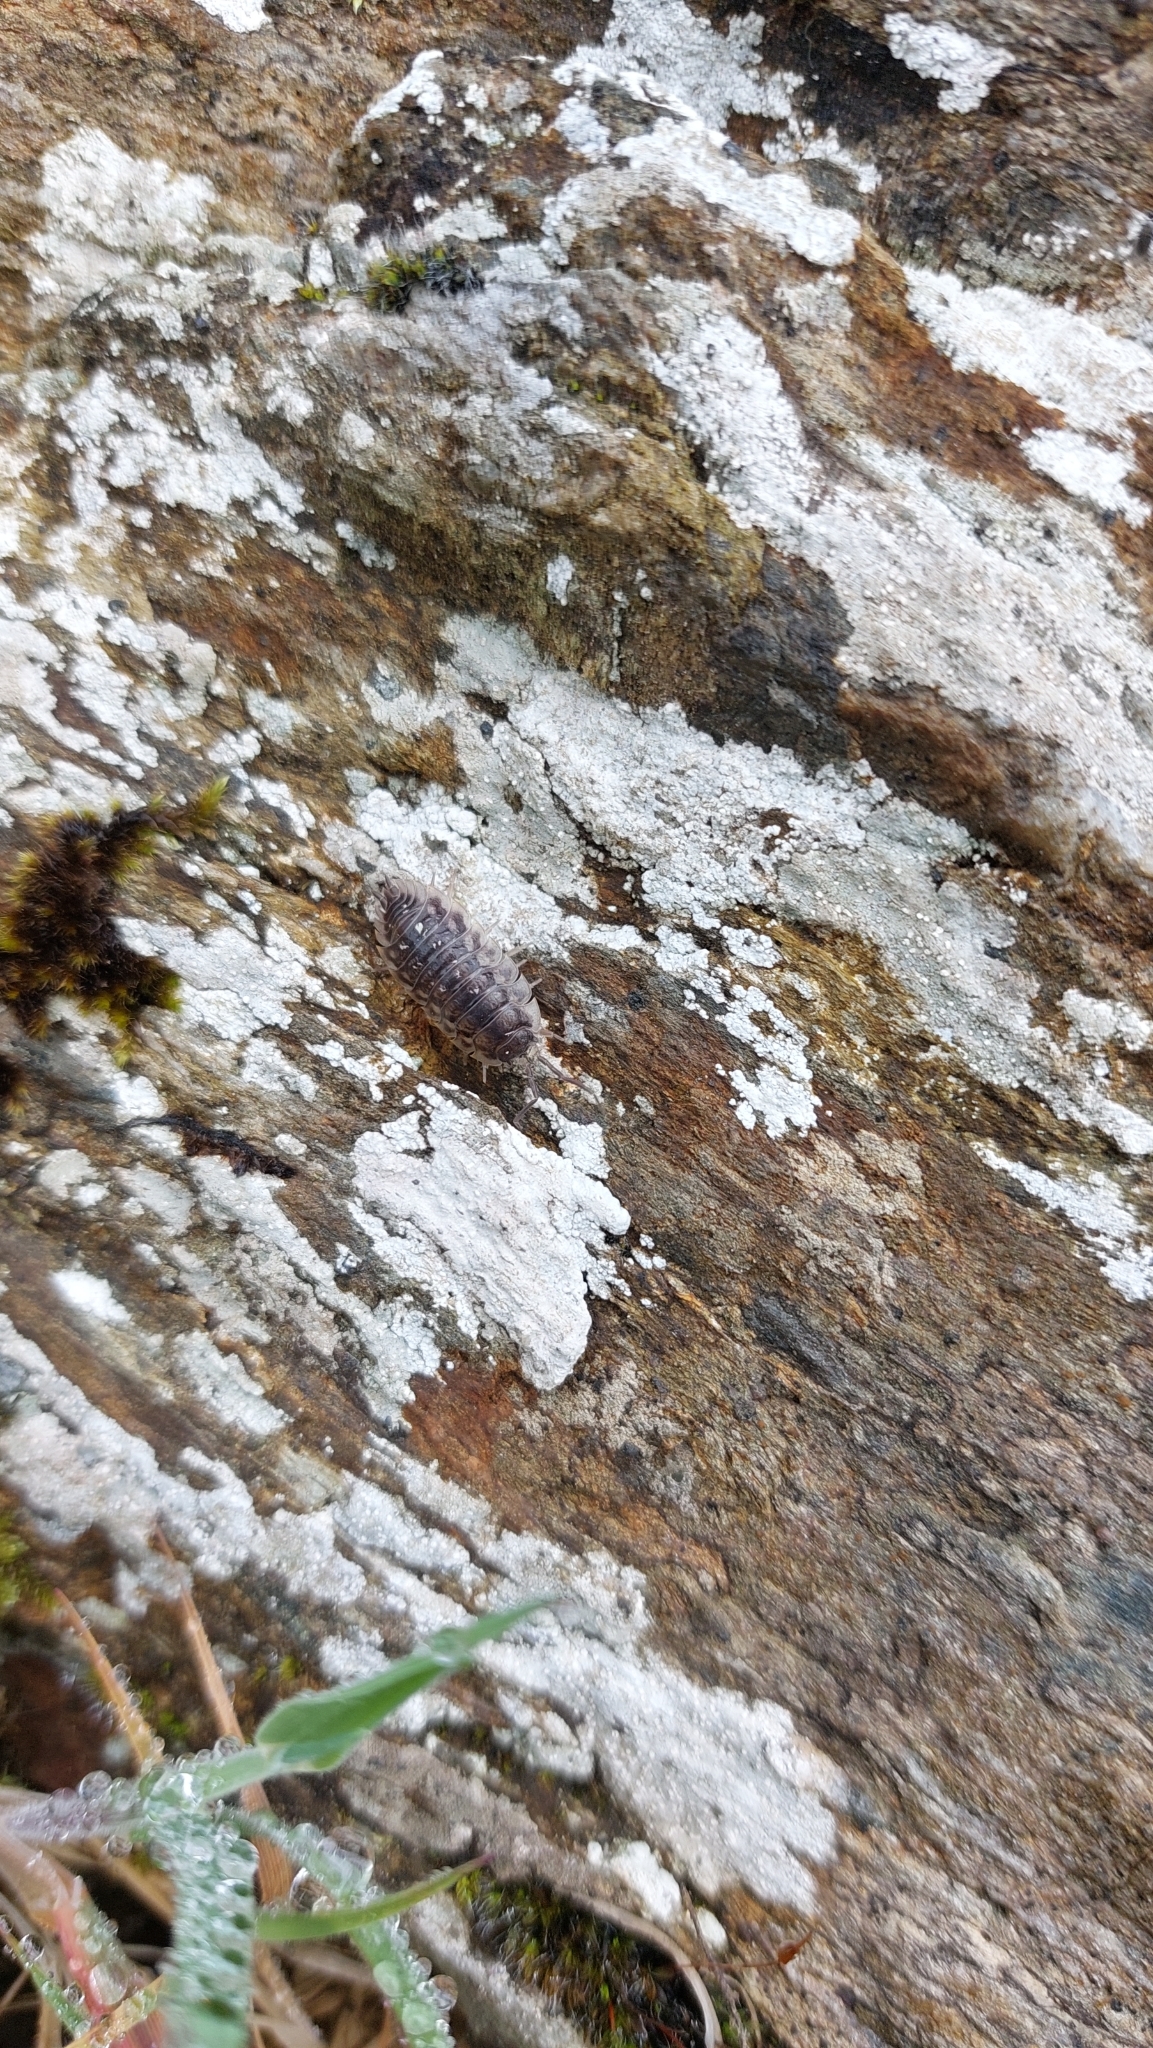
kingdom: Animalia
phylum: Arthropoda
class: Malacostraca
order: Isopoda
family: Oniscidae
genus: Oniscus
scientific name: Oniscus asellus
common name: Common shiny woodlouse
